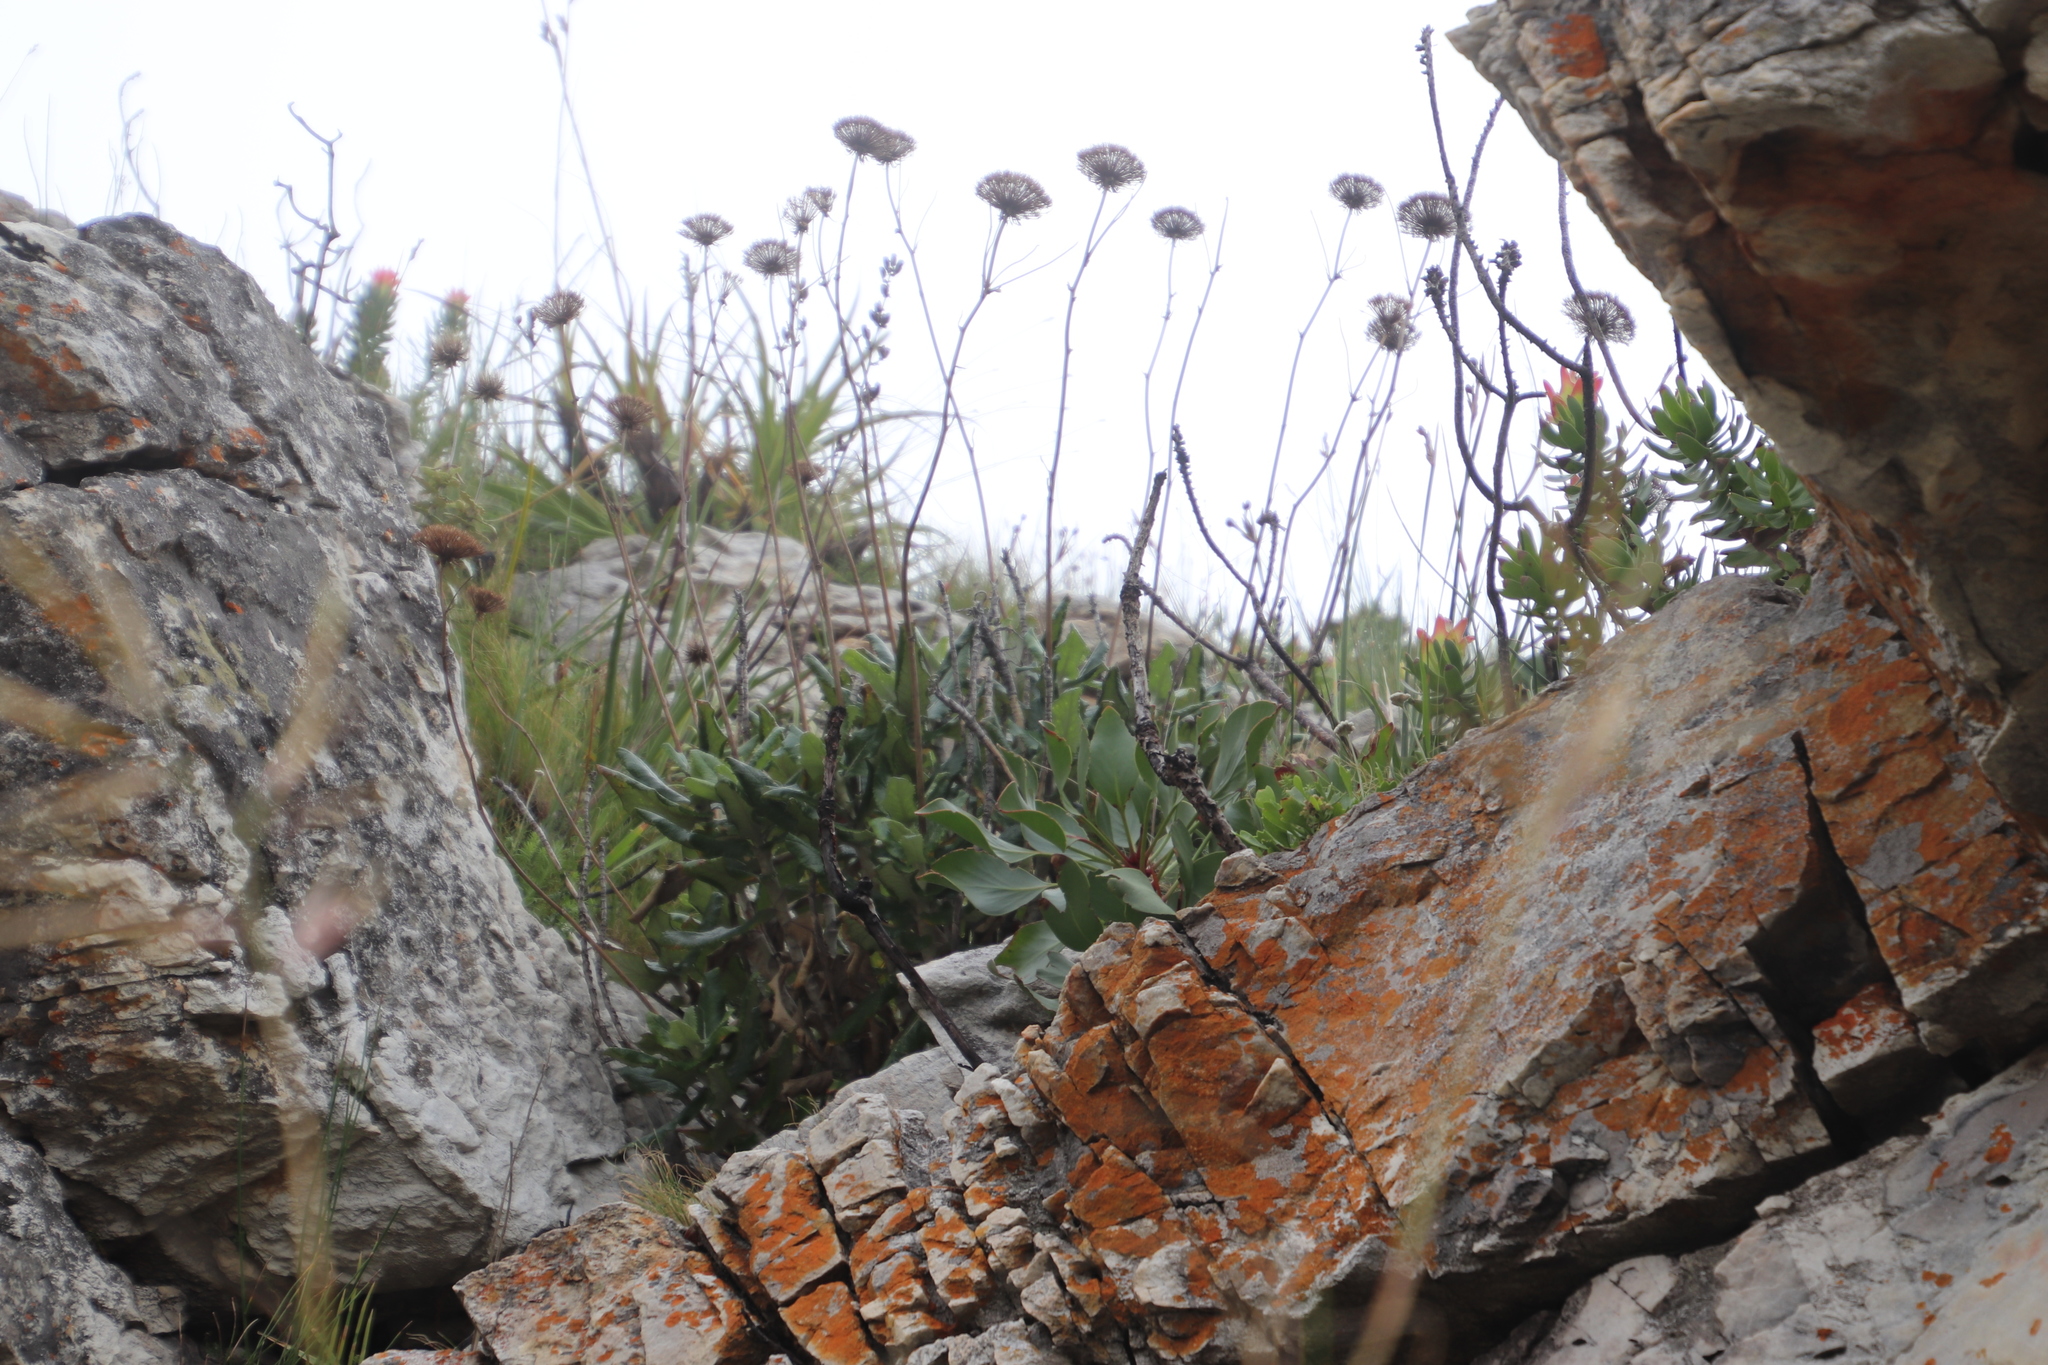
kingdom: Plantae
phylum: Tracheophyta
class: Magnoliopsida
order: Apiales
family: Apiaceae
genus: Hermas
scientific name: Hermas villosa
